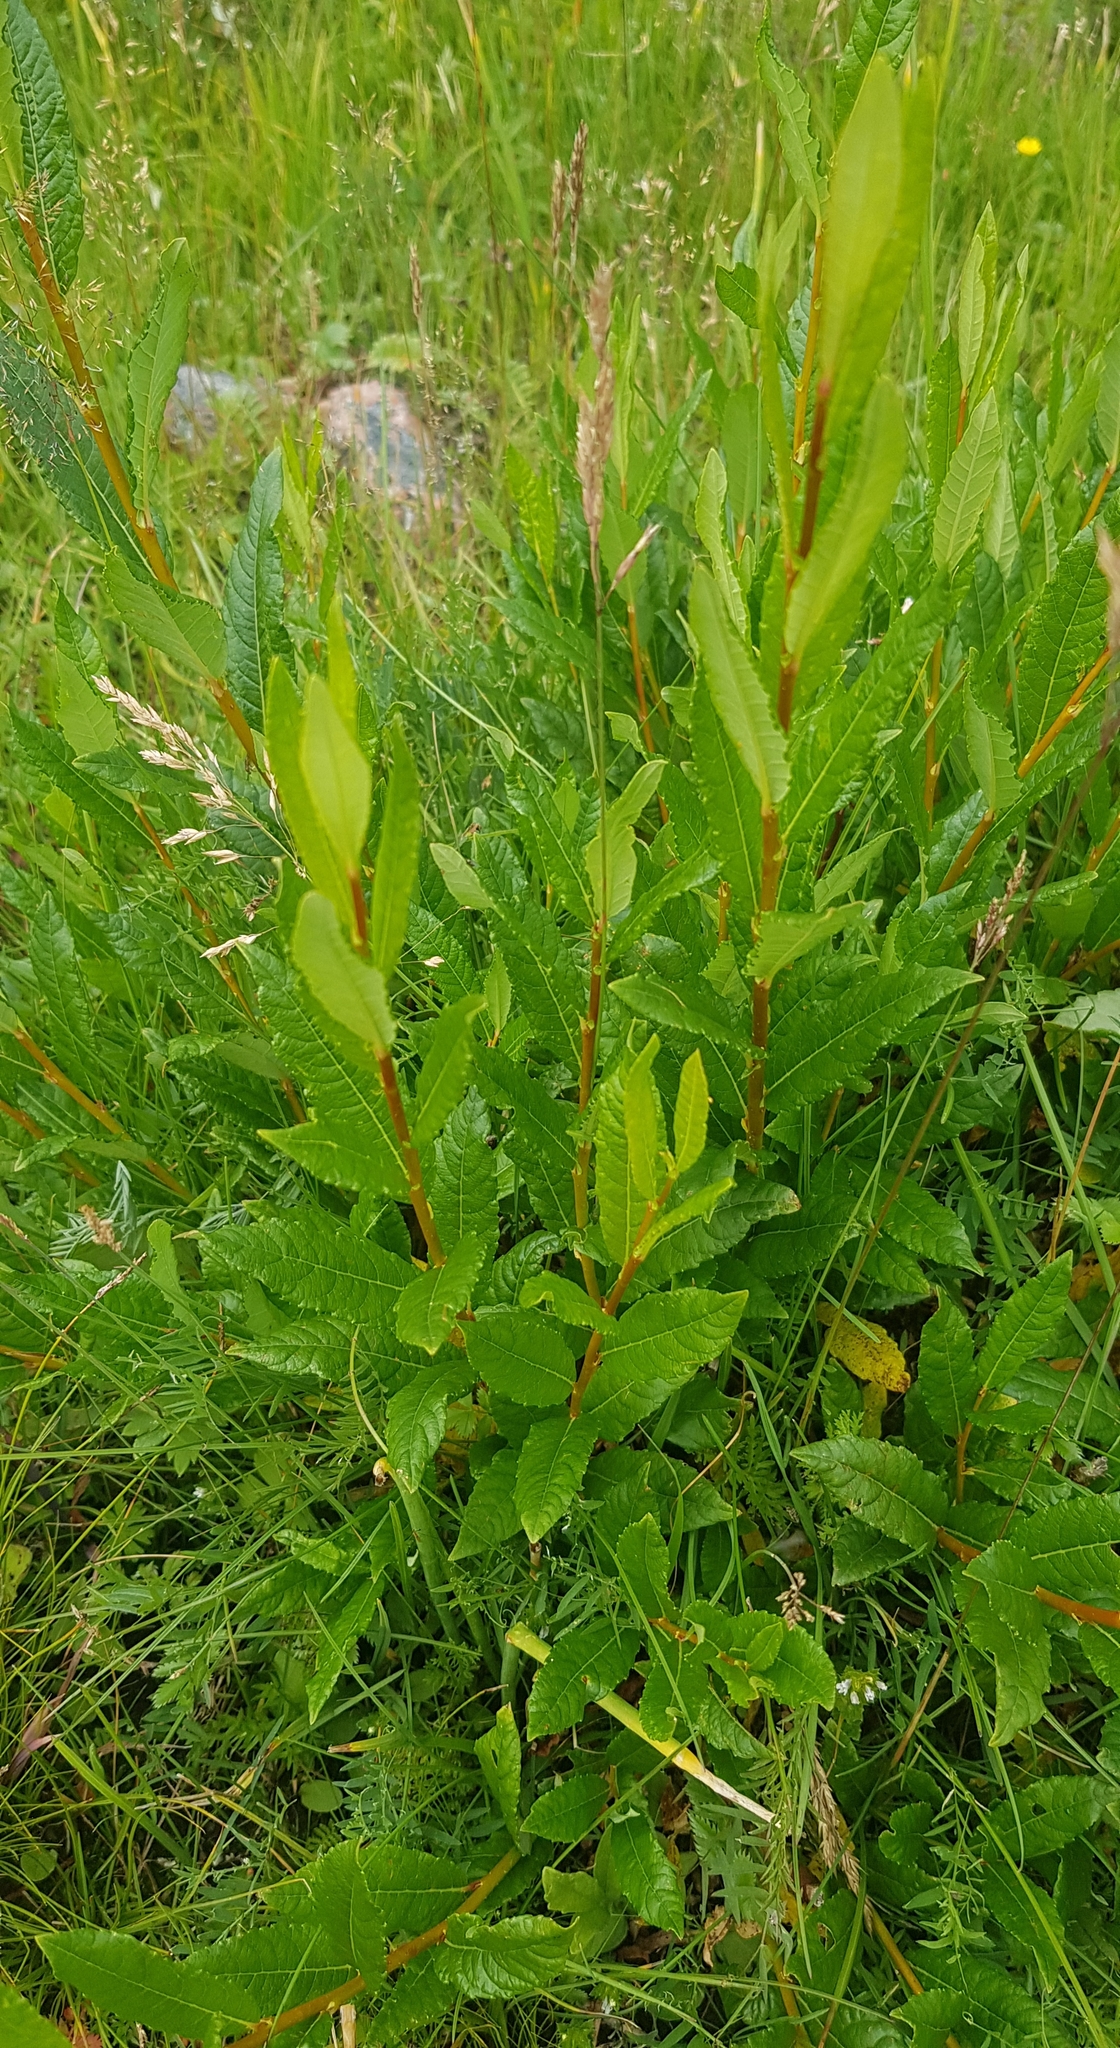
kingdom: Plantae
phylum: Tracheophyta
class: Magnoliopsida
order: Malpighiales
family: Salicaceae
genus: Salix
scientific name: Salix divaricata
